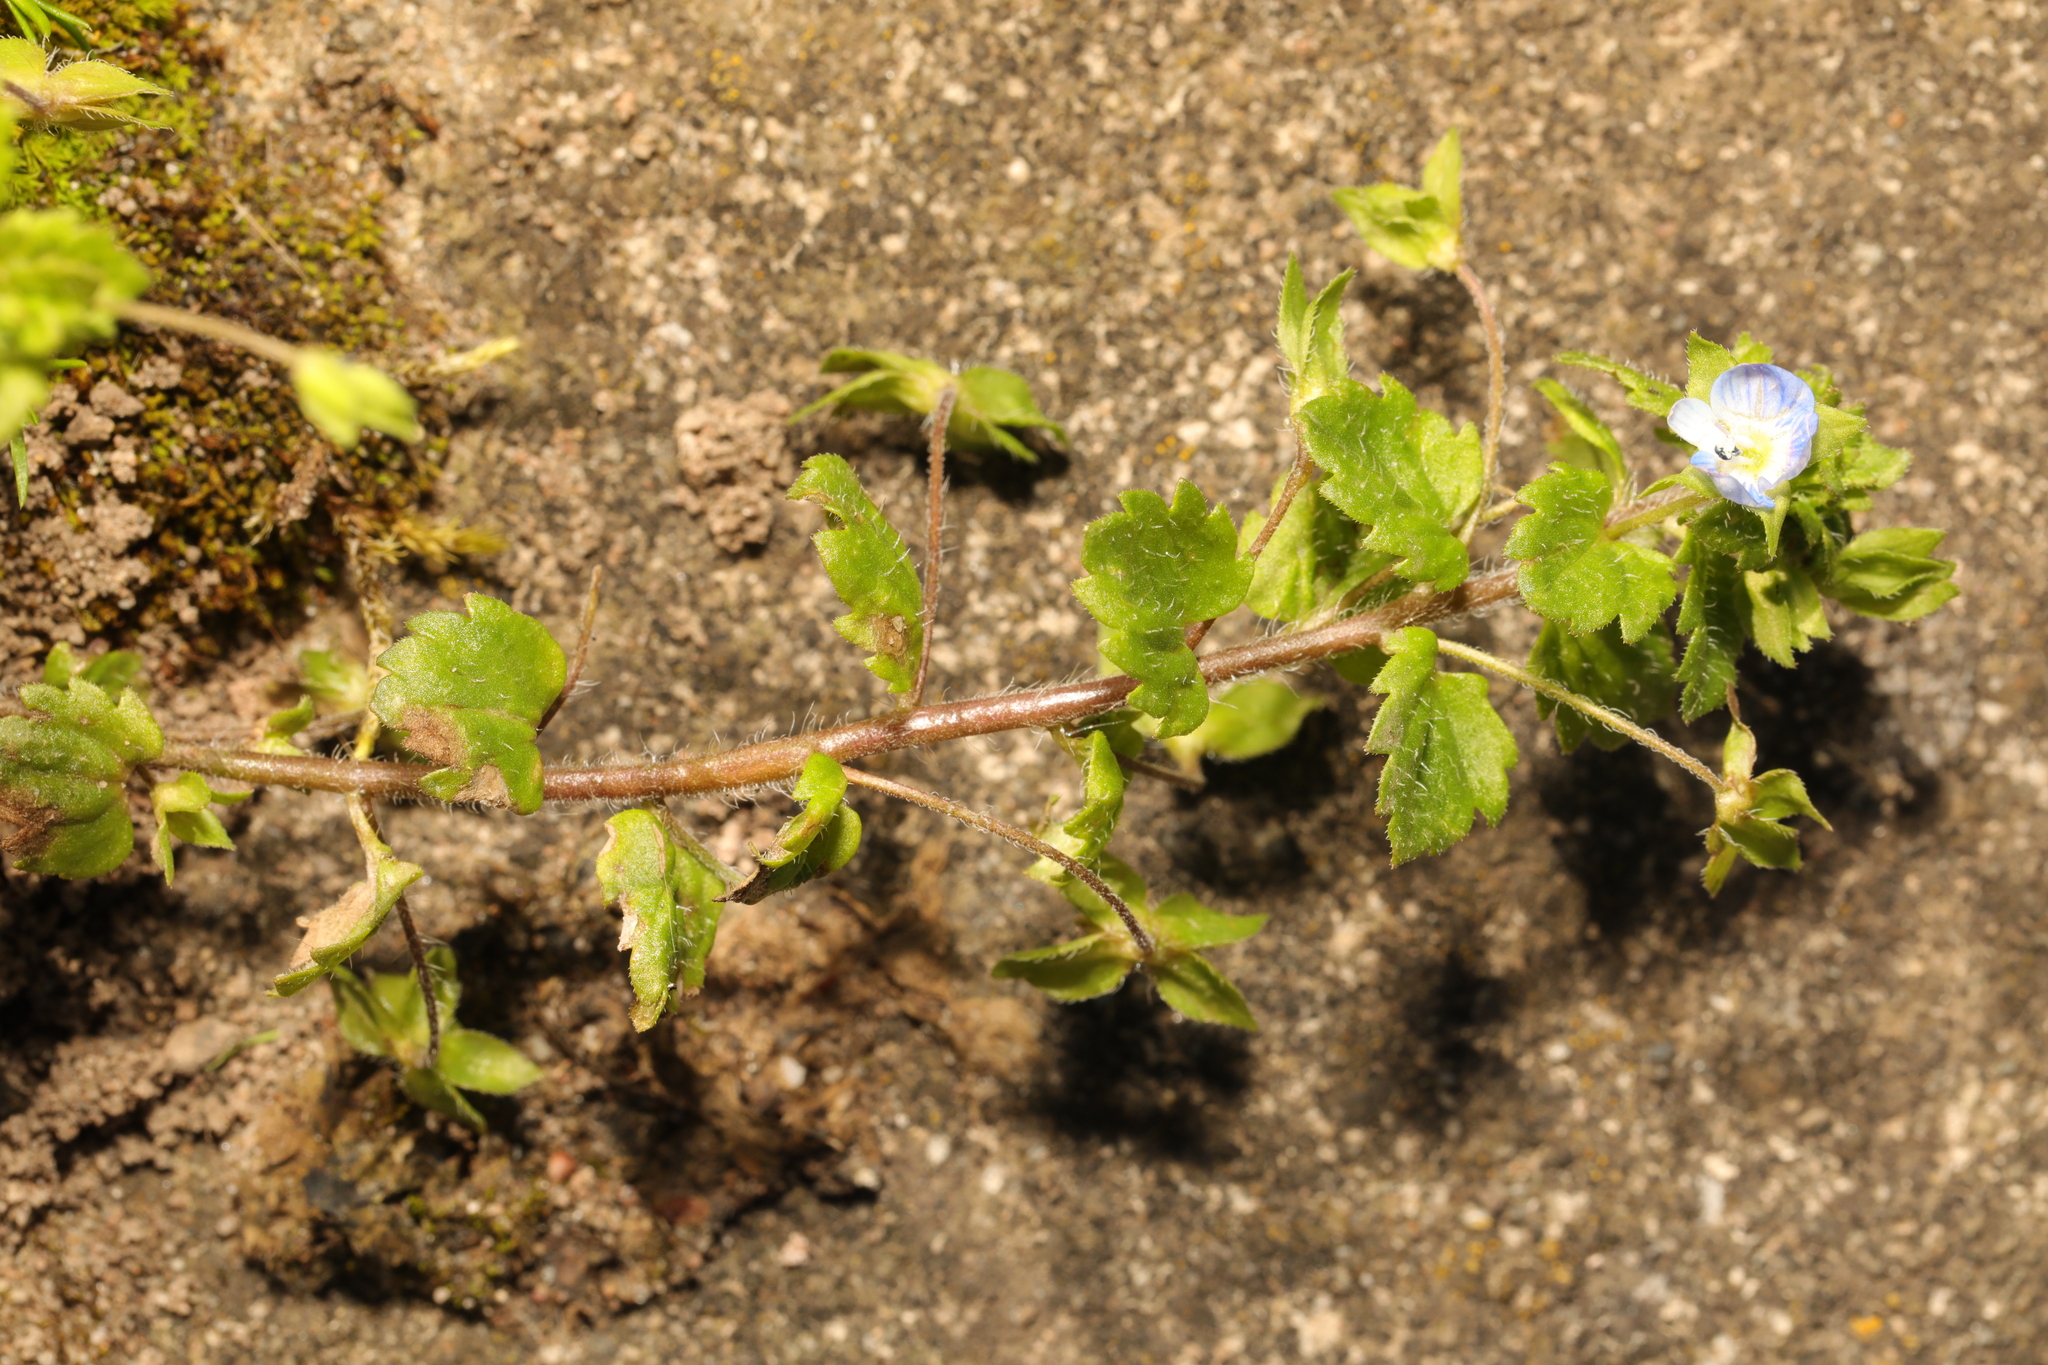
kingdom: Plantae
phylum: Tracheophyta
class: Magnoliopsida
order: Lamiales
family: Plantaginaceae
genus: Veronica
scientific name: Veronica persica
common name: Common field-speedwell
